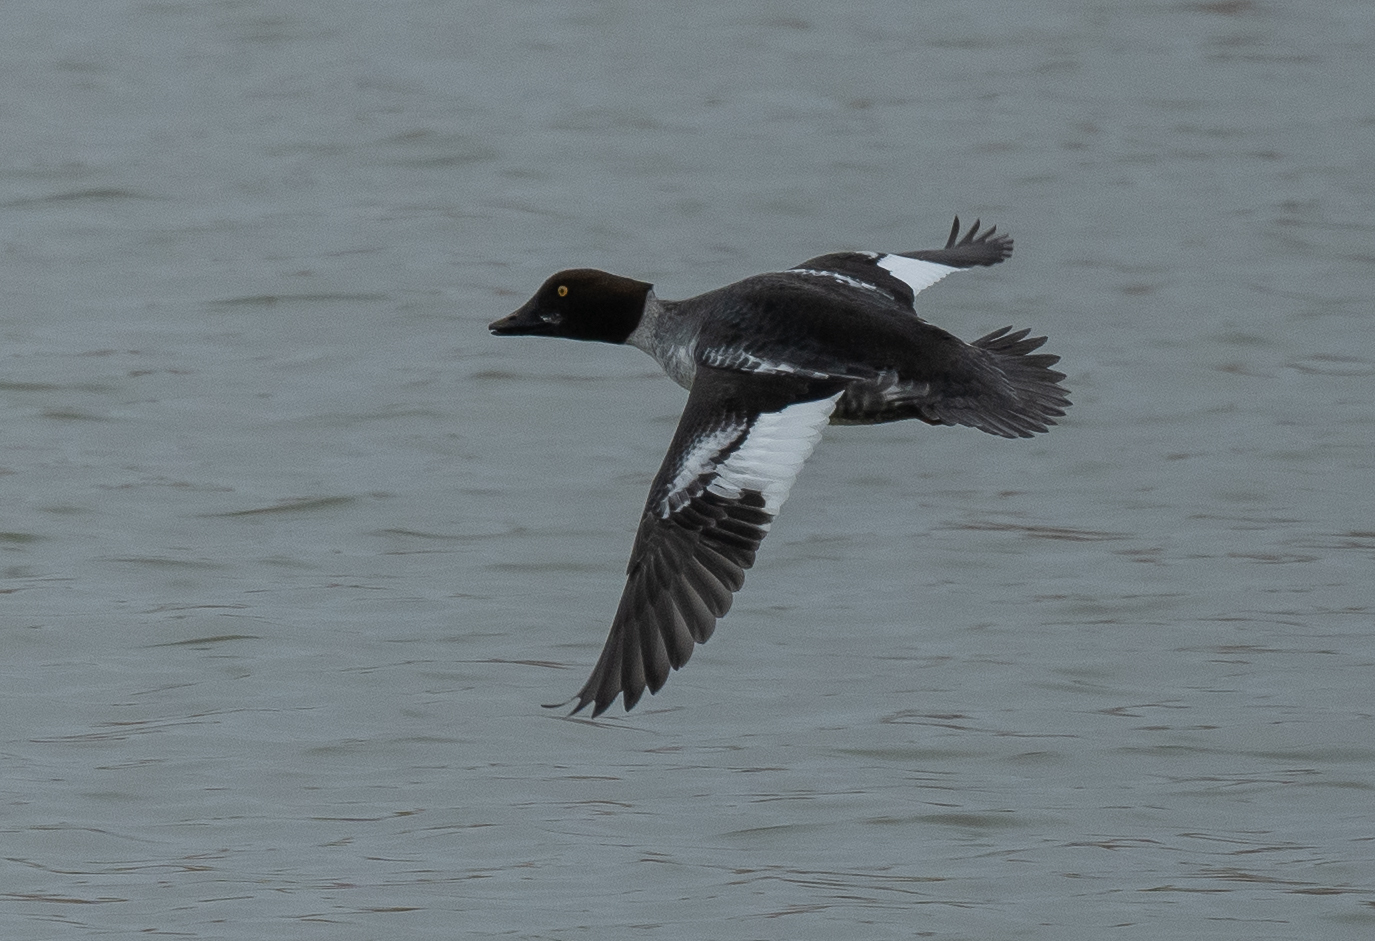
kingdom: Animalia
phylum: Chordata
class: Aves
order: Anseriformes
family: Anatidae
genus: Bucephala
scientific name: Bucephala clangula
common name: Common goldeneye
